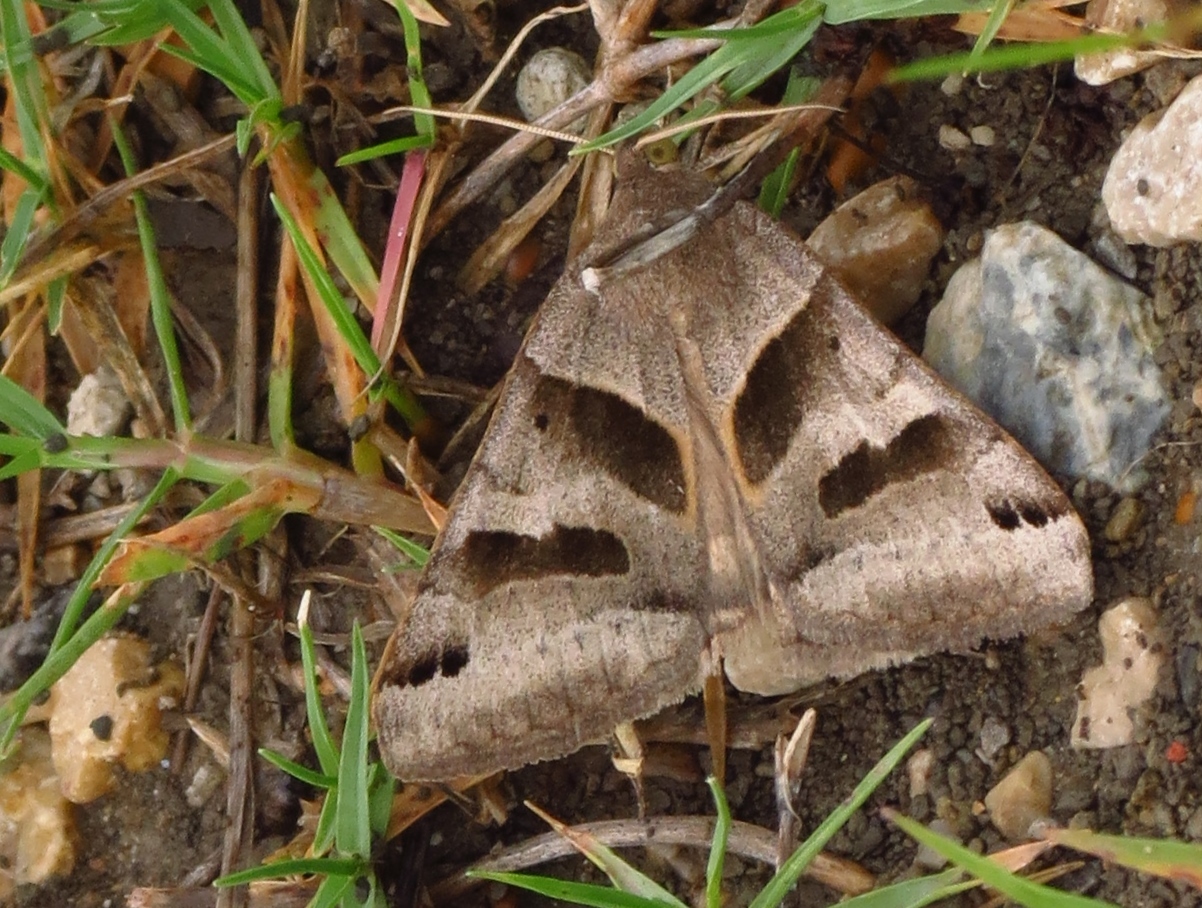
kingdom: Animalia
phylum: Arthropoda
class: Insecta
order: Lepidoptera
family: Erebidae
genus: Caenurgina
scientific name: Caenurgina erechtea
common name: Forage looper moth
